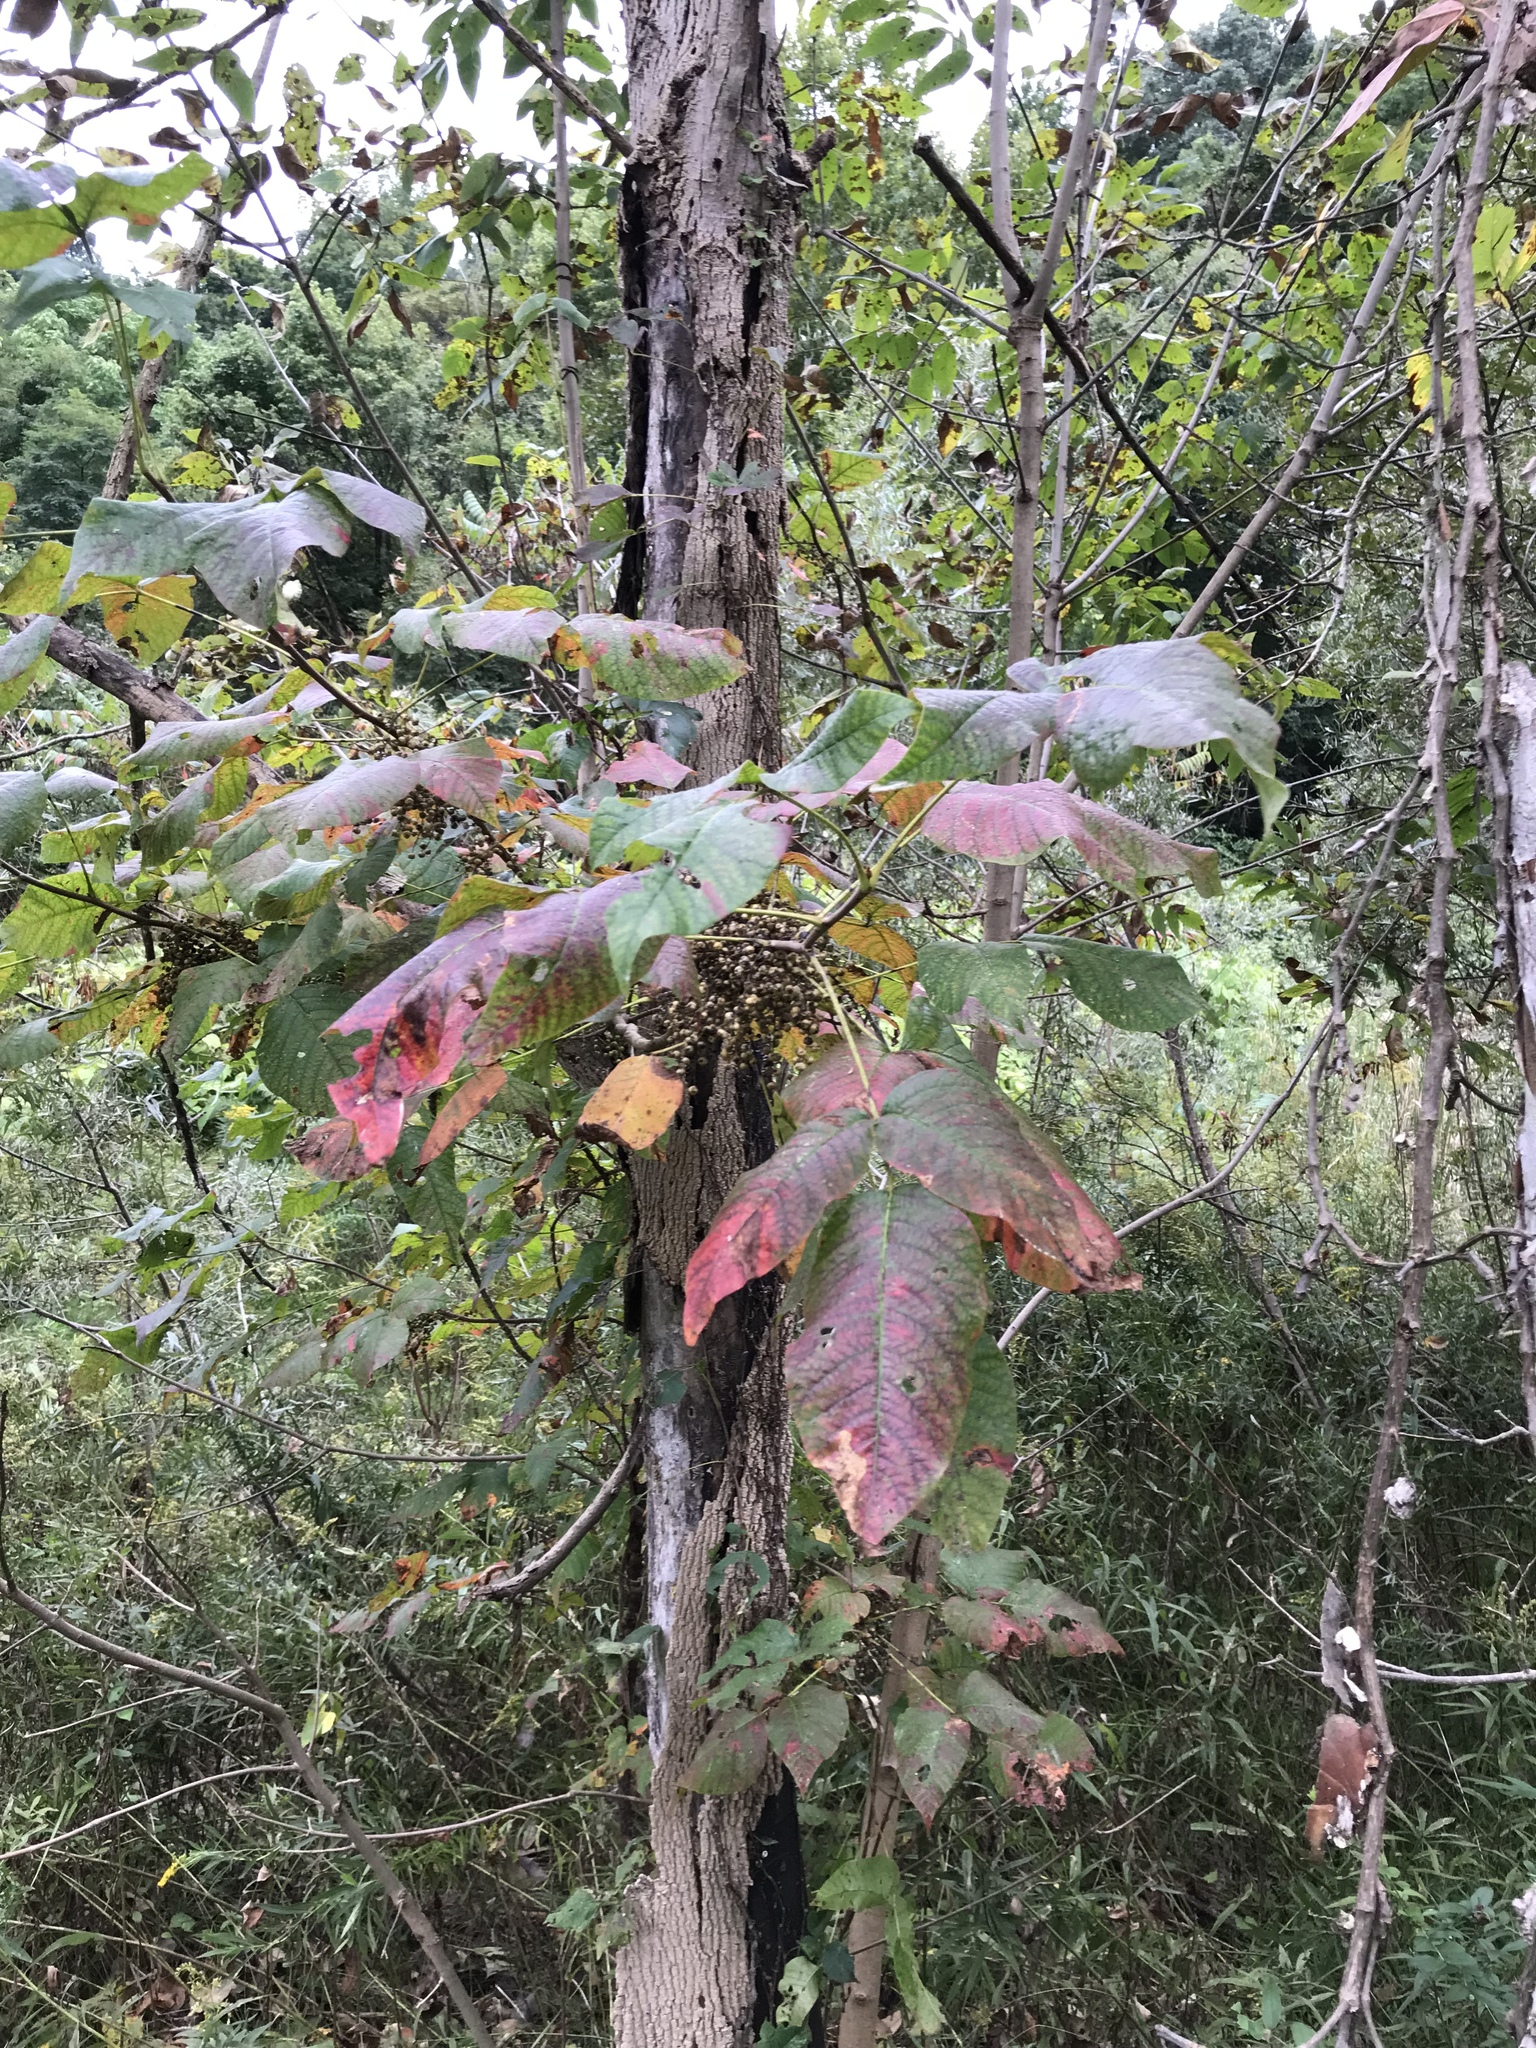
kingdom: Plantae
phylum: Tracheophyta
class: Magnoliopsida
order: Sapindales
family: Anacardiaceae
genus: Toxicodendron
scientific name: Toxicodendron radicans
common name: Poison ivy
